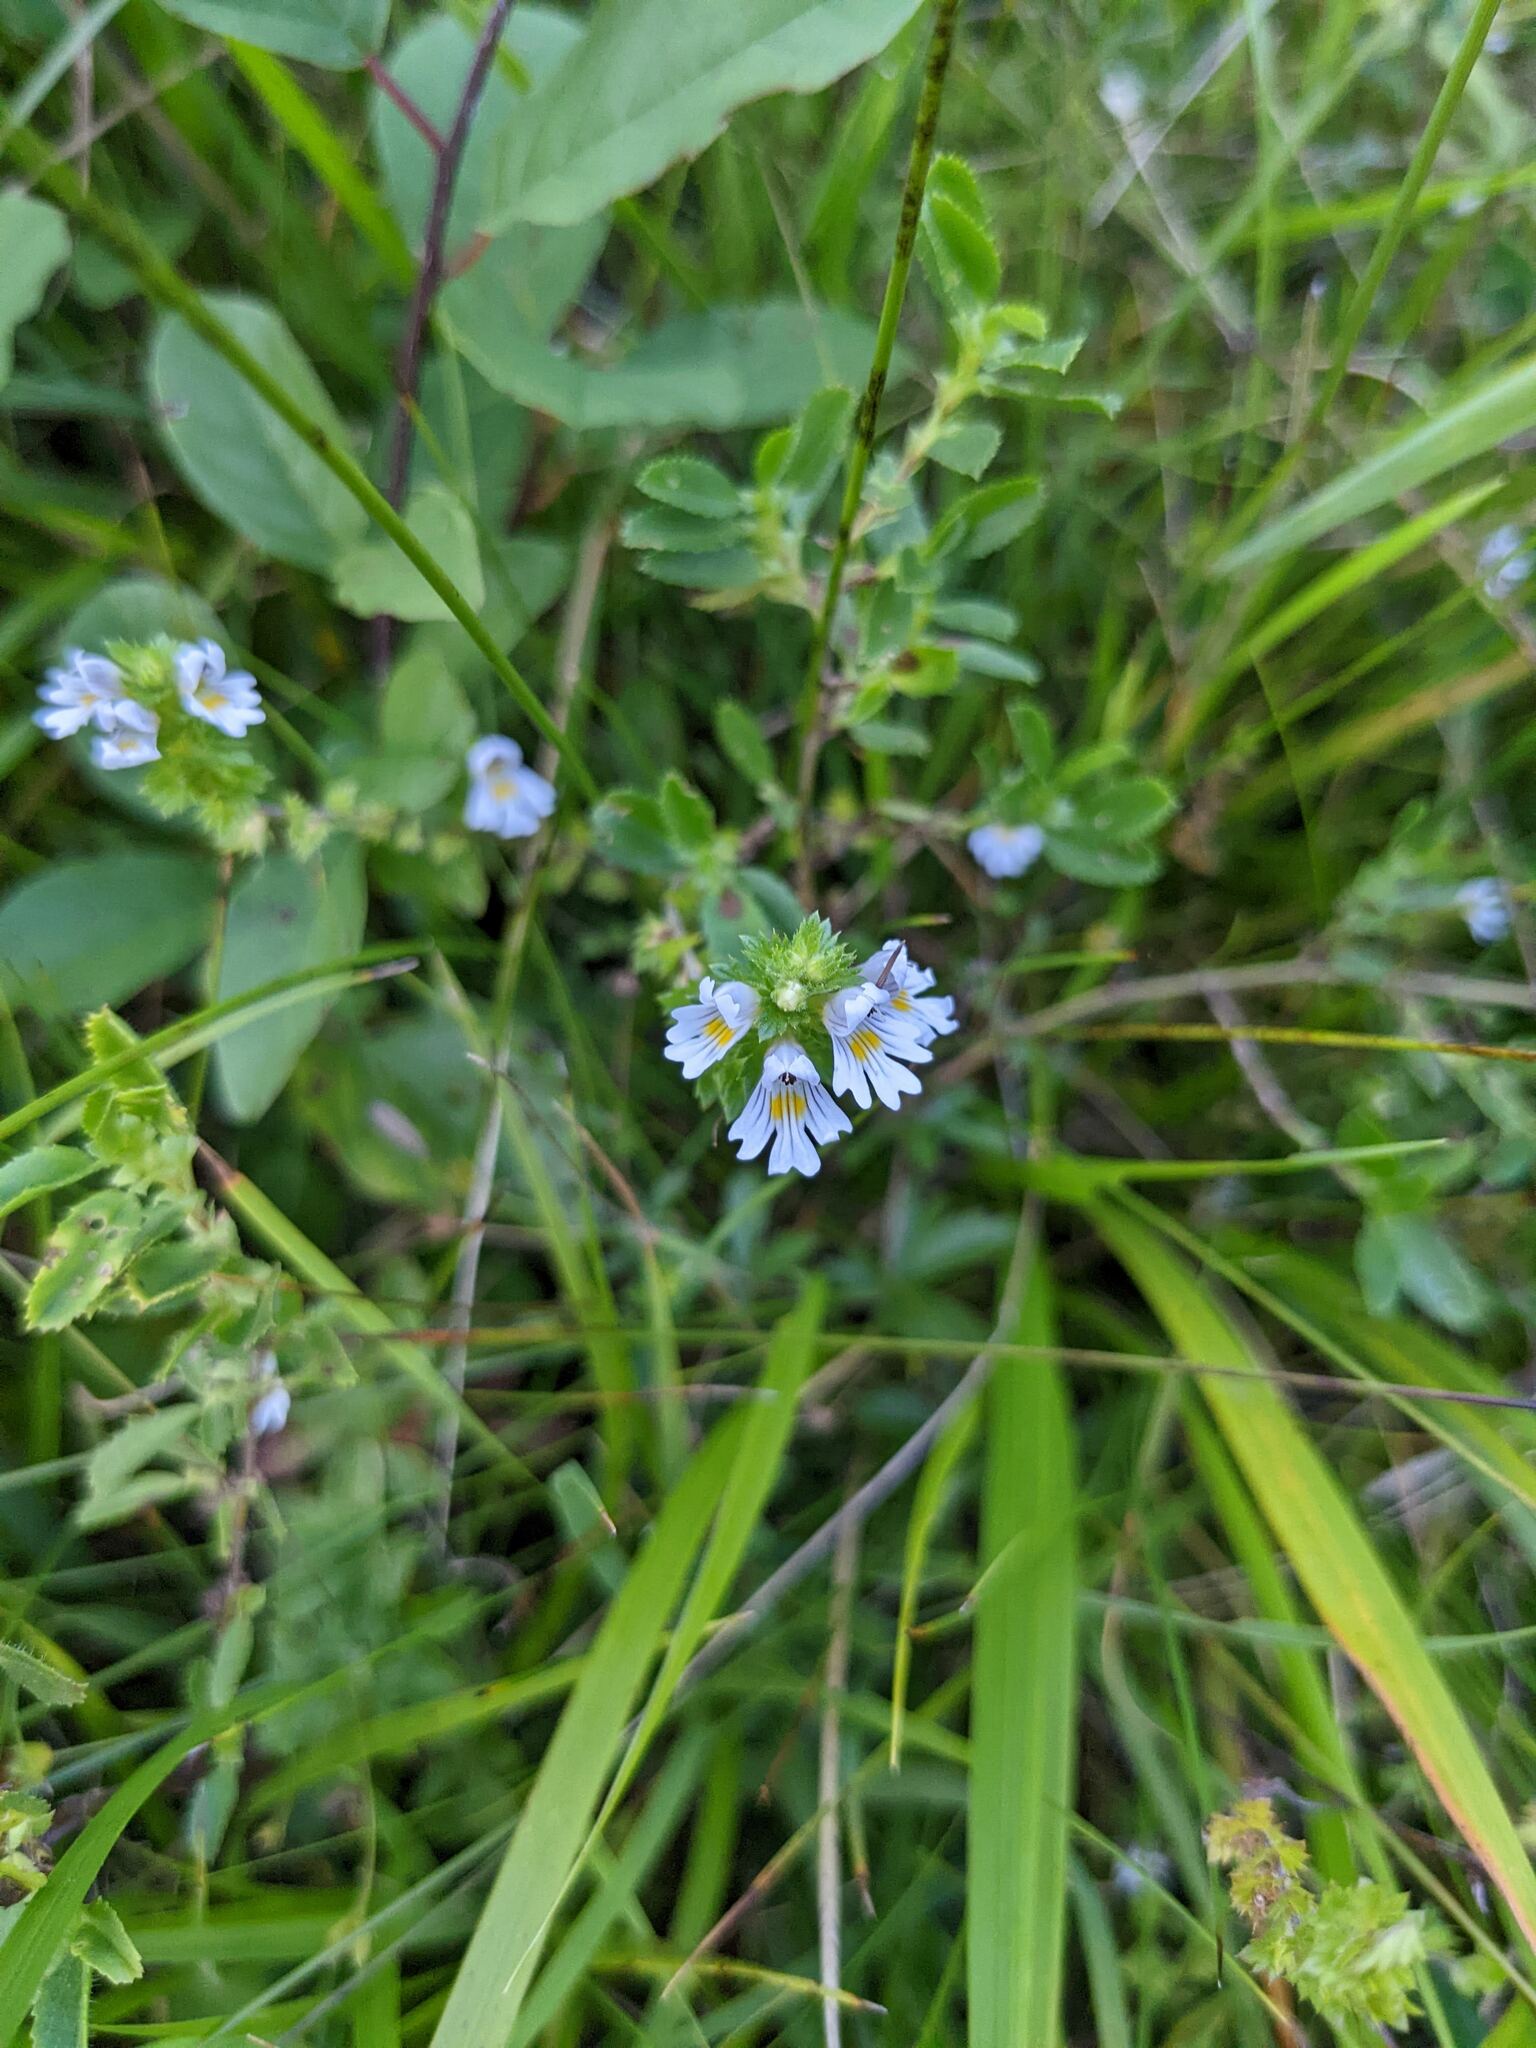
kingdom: Plantae
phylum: Tracheophyta
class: Magnoliopsida
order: Lamiales
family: Orobanchaceae
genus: Euphrasia
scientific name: Euphrasia officinalis
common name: Eyebright
